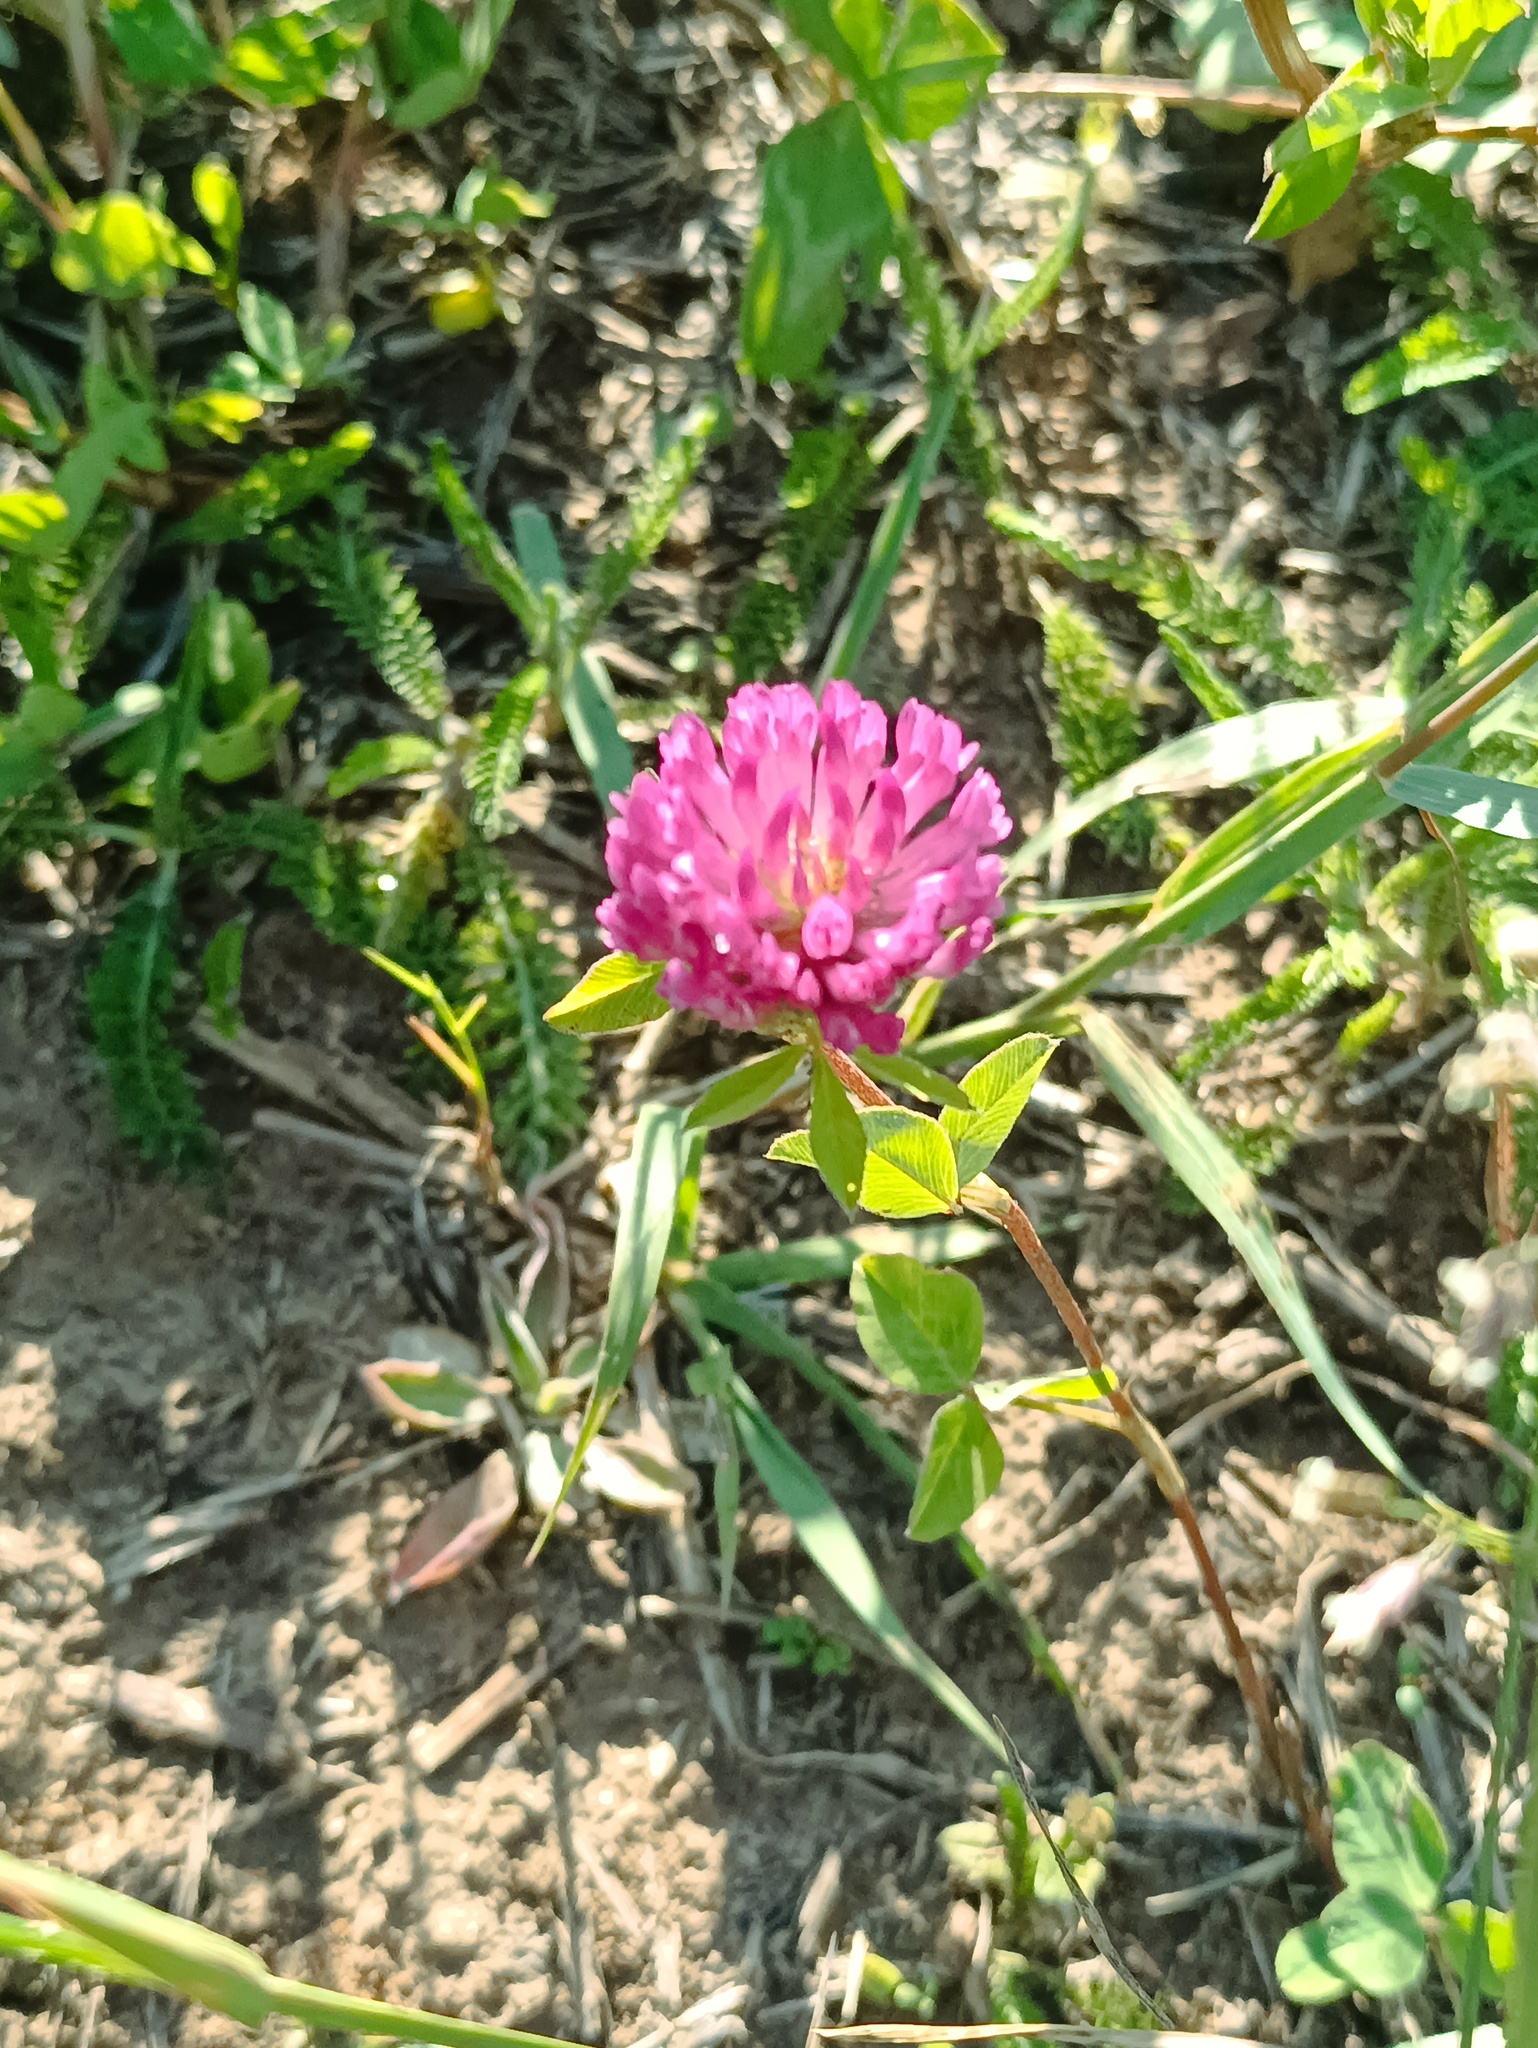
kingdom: Plantae
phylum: Tracheophyta
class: Magnoliopsida
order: Fabales
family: Fabaceae
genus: Trifolium
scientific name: Trifolium pratense
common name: Red clover
